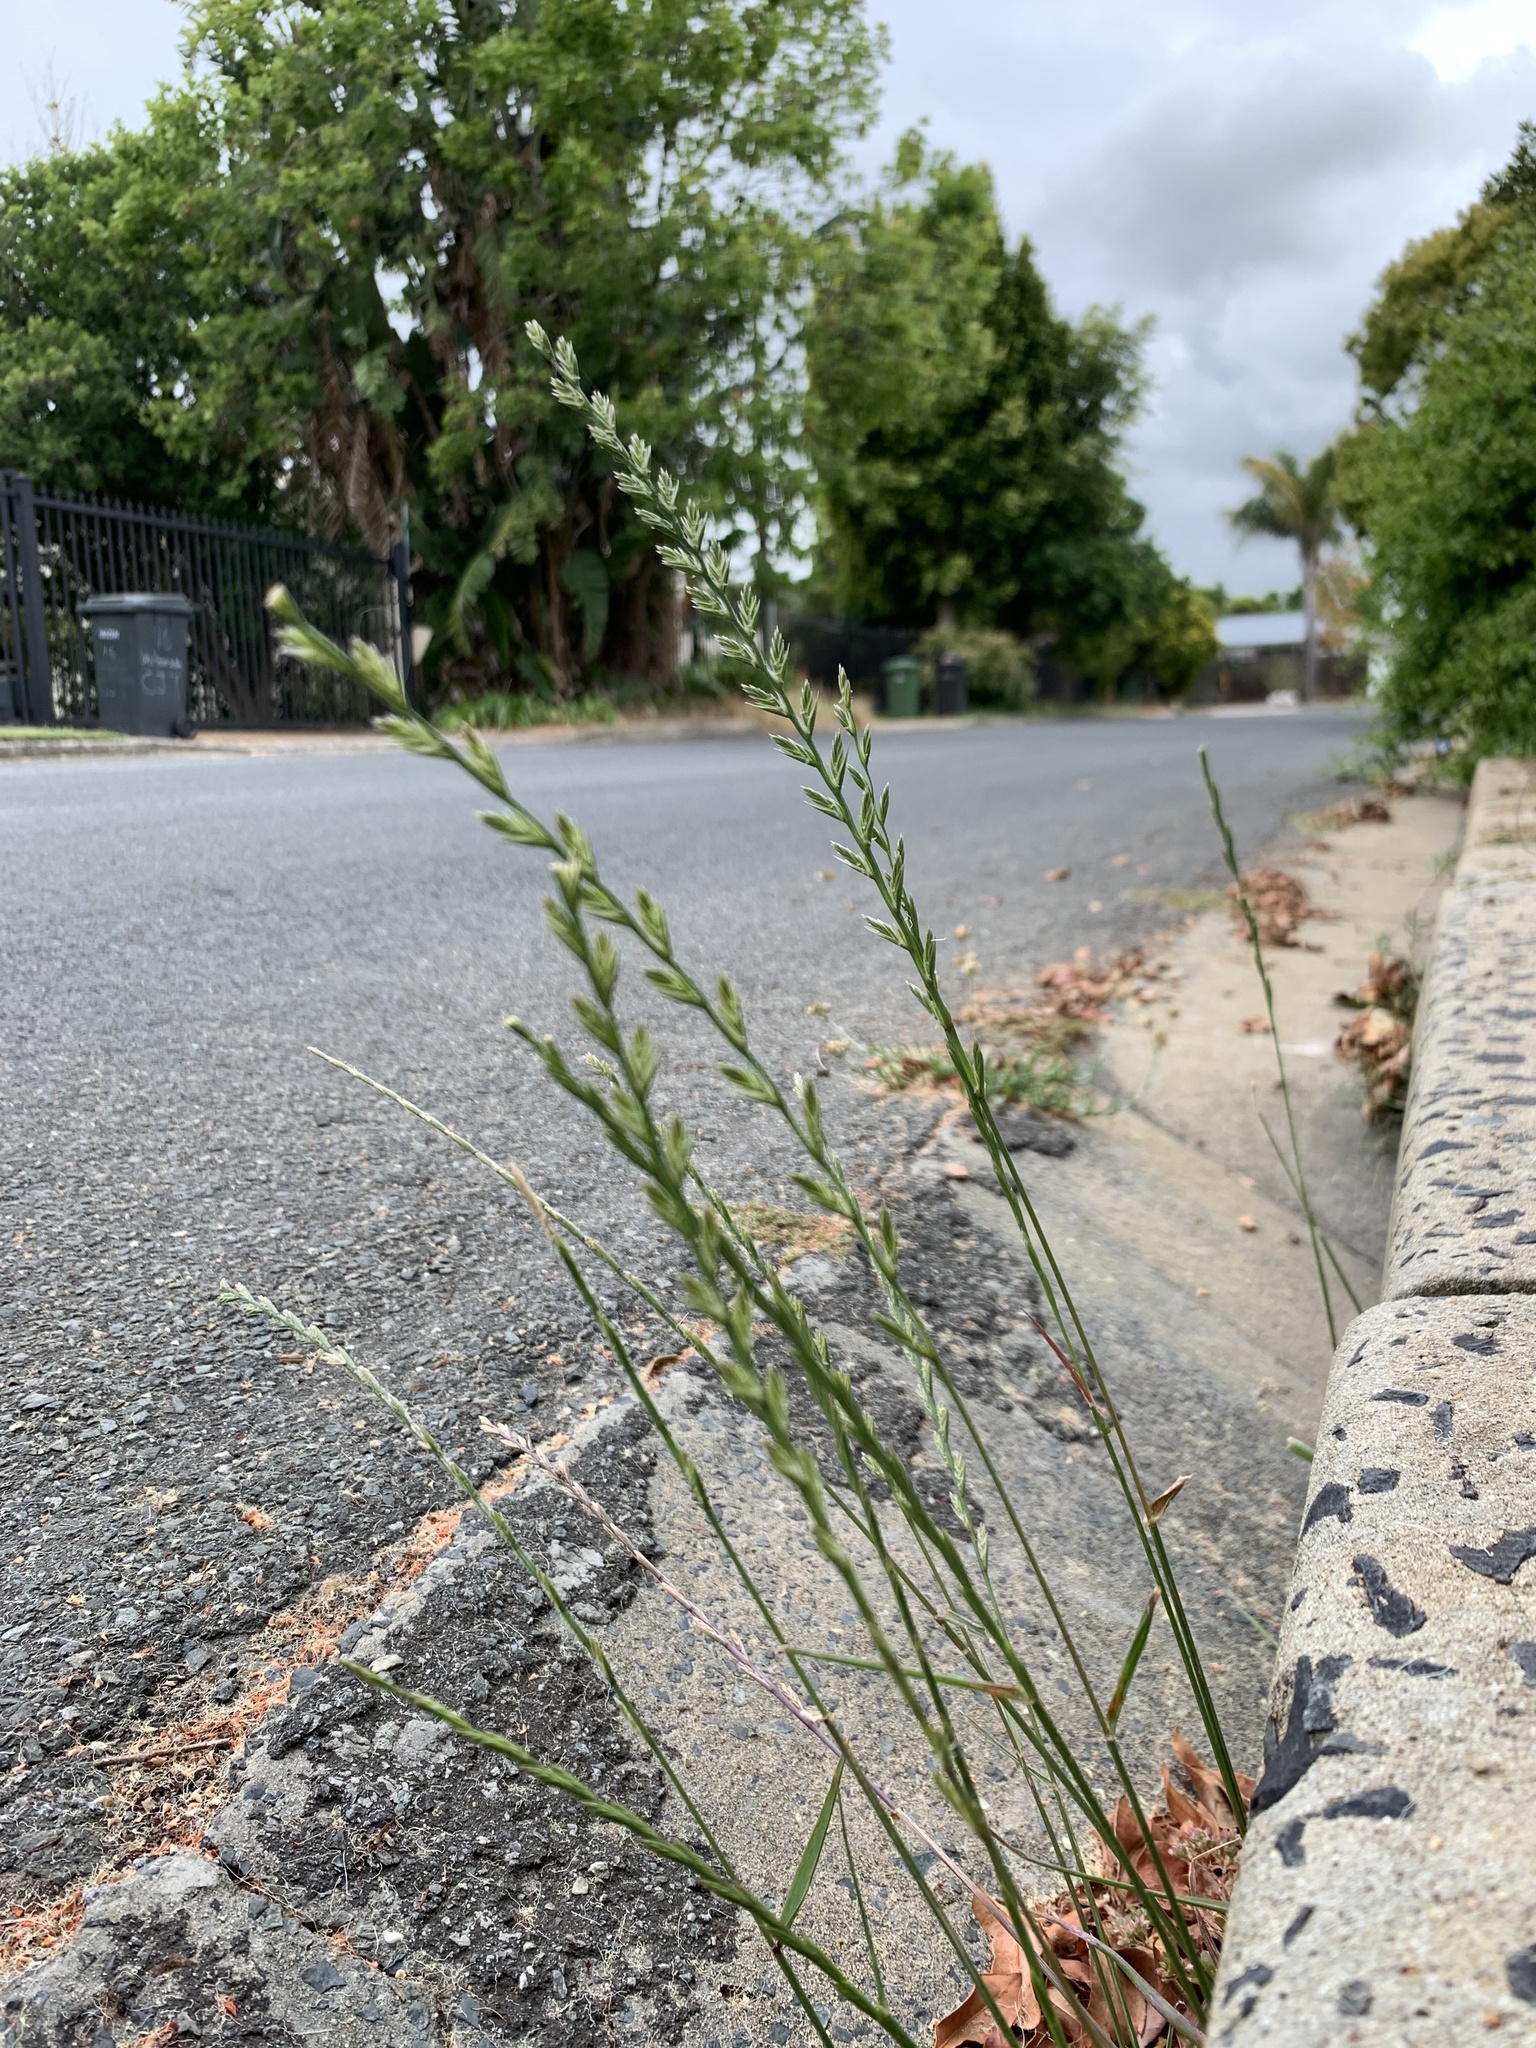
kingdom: Plantae
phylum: Tracheophyta
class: Liliopsida
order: Poales
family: Poaceae
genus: Lolium
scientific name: Lolium multiflorum
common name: Annual ryegrass
